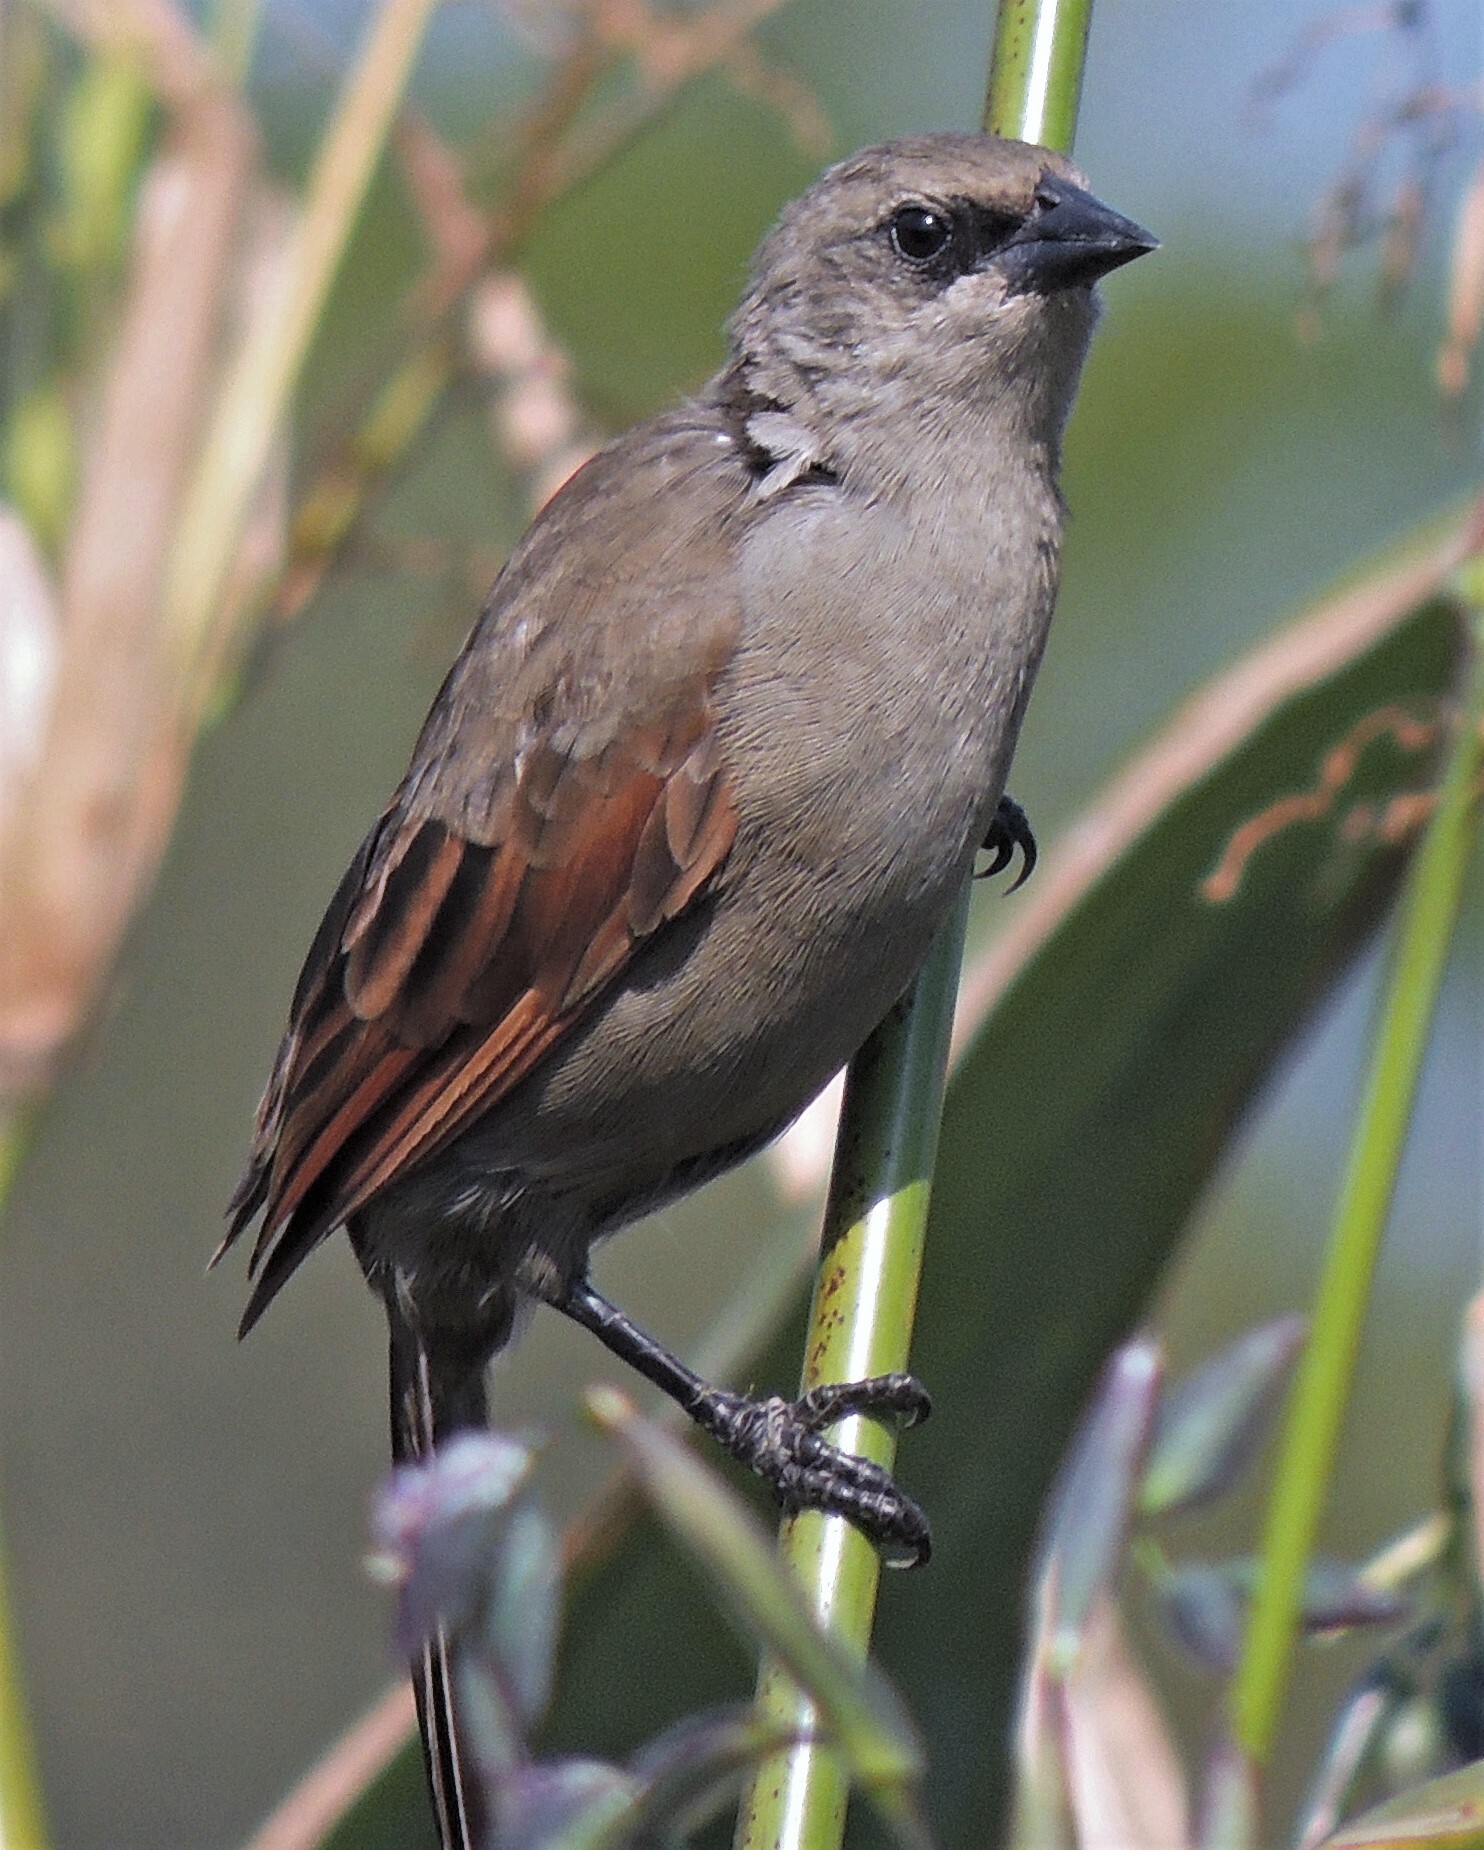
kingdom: Animalia
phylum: Chordata
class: Aves
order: Passeriformes
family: Icteridae
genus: Agelaioides
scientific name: Agelaioides badius
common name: Baywing
